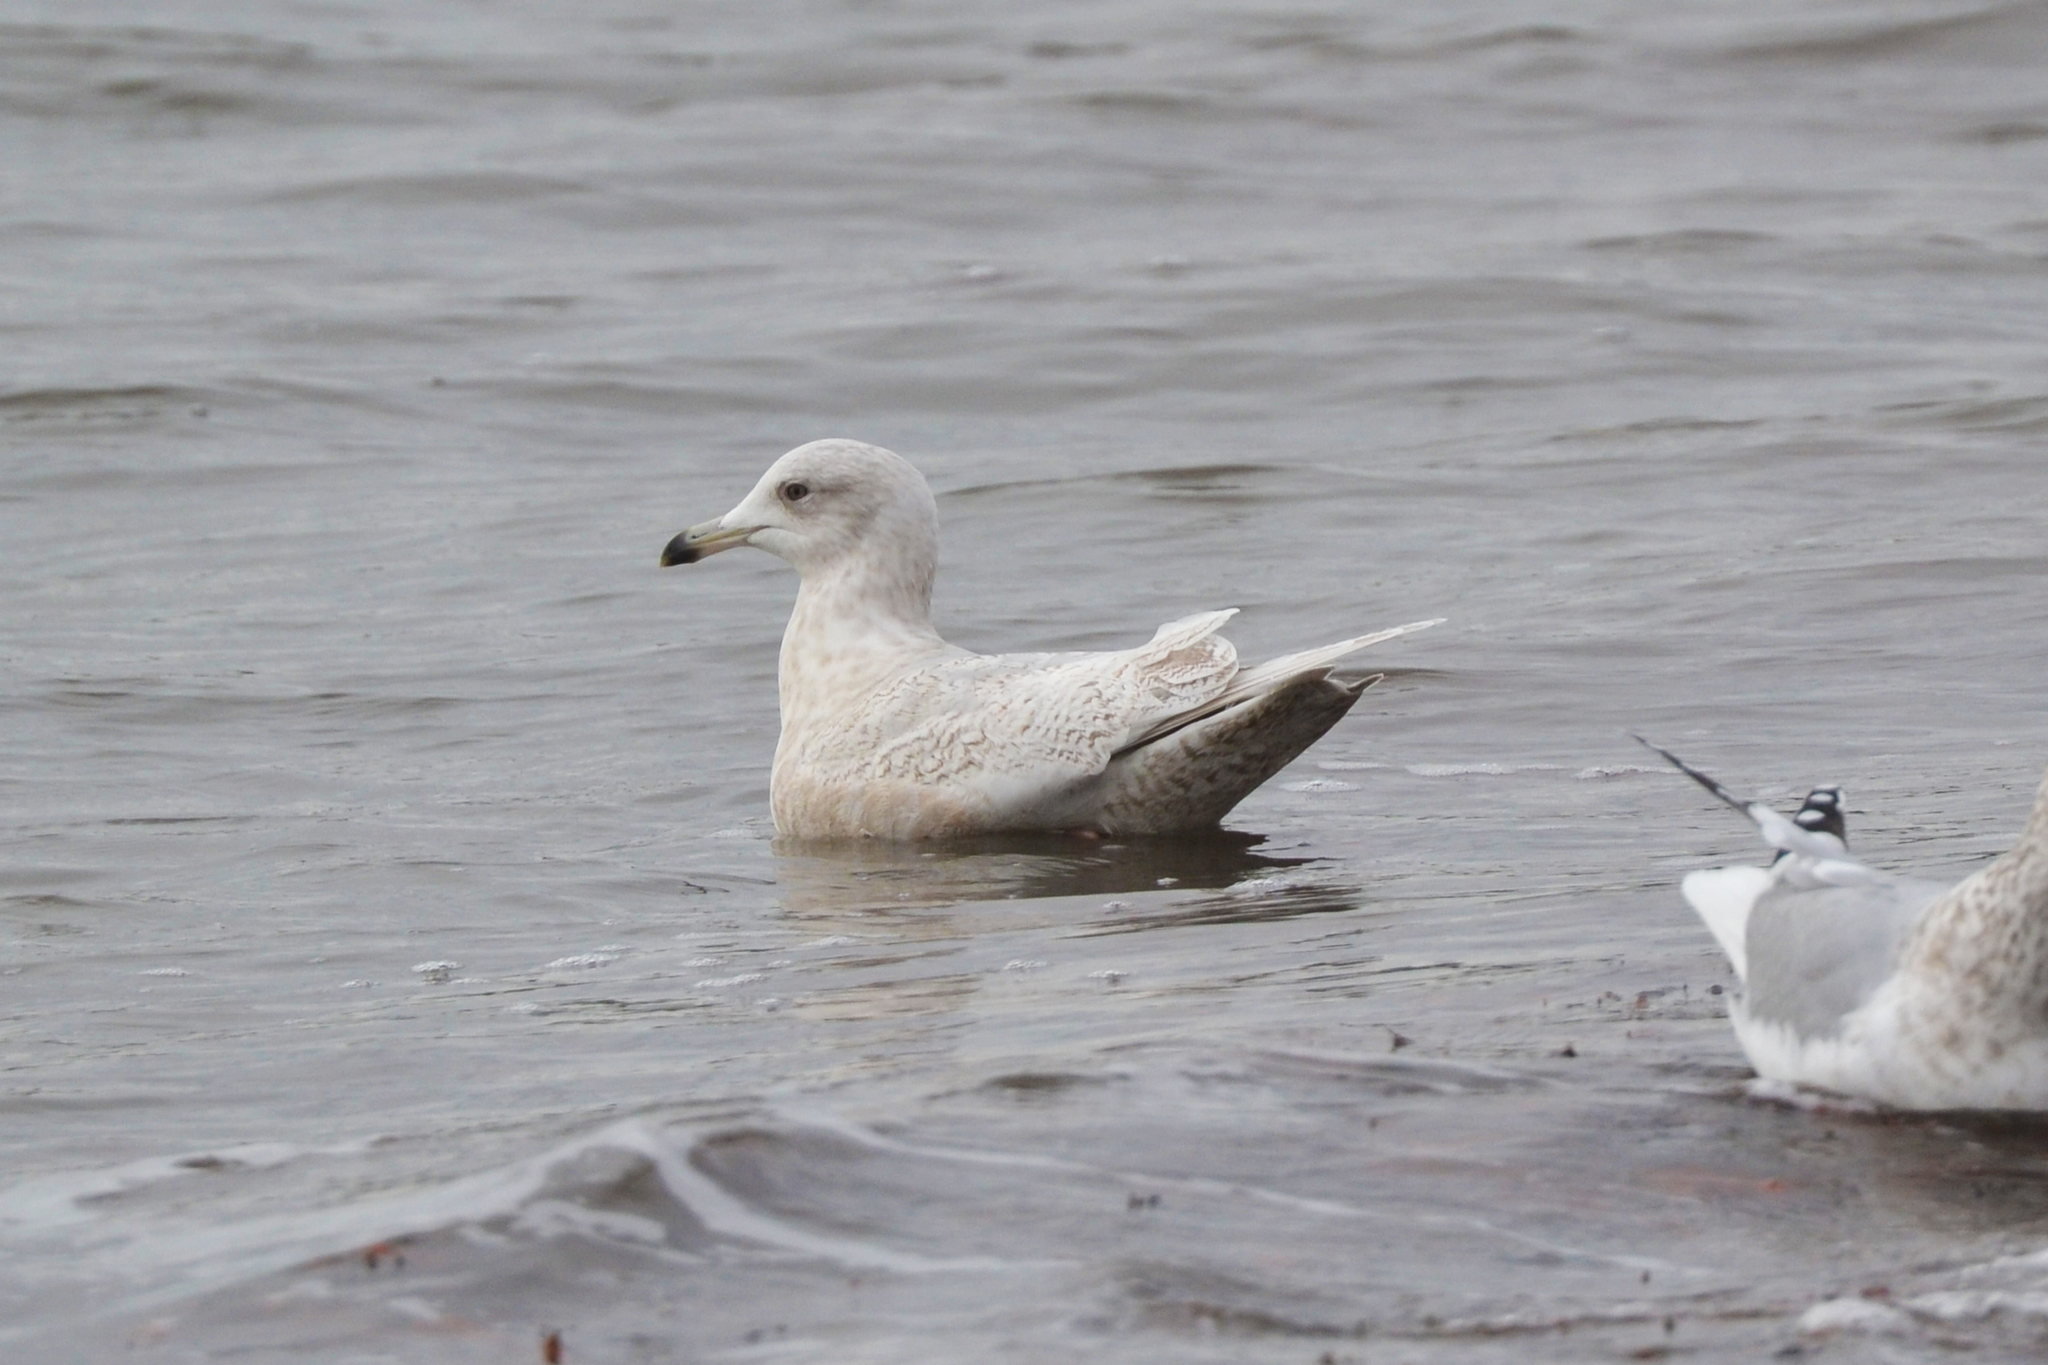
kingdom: Animalia
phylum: Chordata
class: Aves
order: Charadriiformes
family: Laridae
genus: Larus
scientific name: Larus glaucoides
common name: Iceland gull
